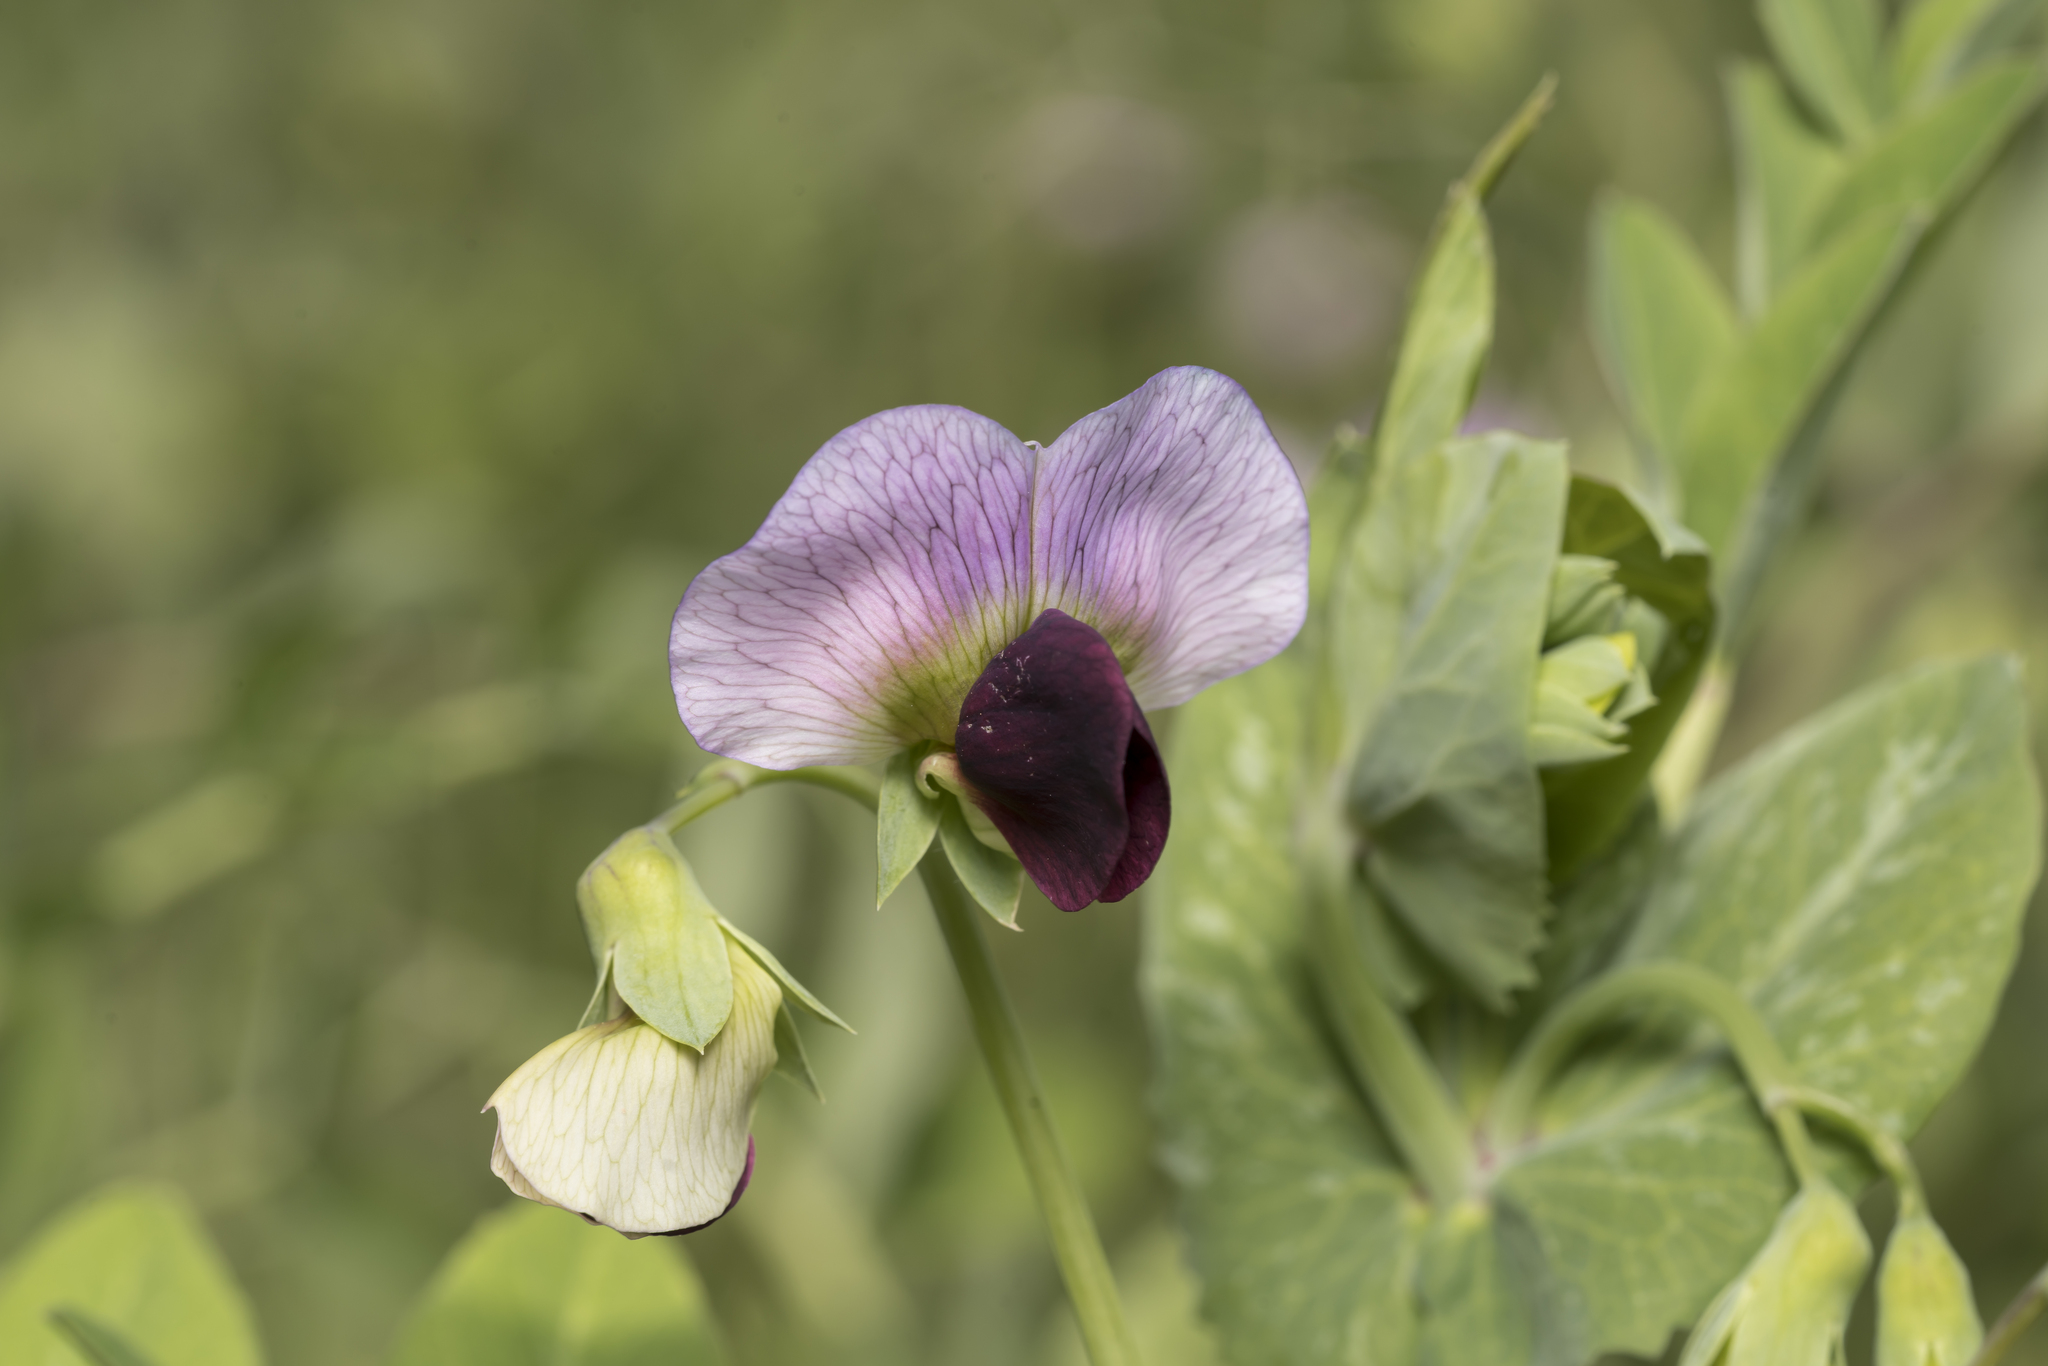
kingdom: Plantae
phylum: Tracheophyta
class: Magnoliopsida
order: Fabales
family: Fabaceae
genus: Lathyrus
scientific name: Lathyrus oleraceus
